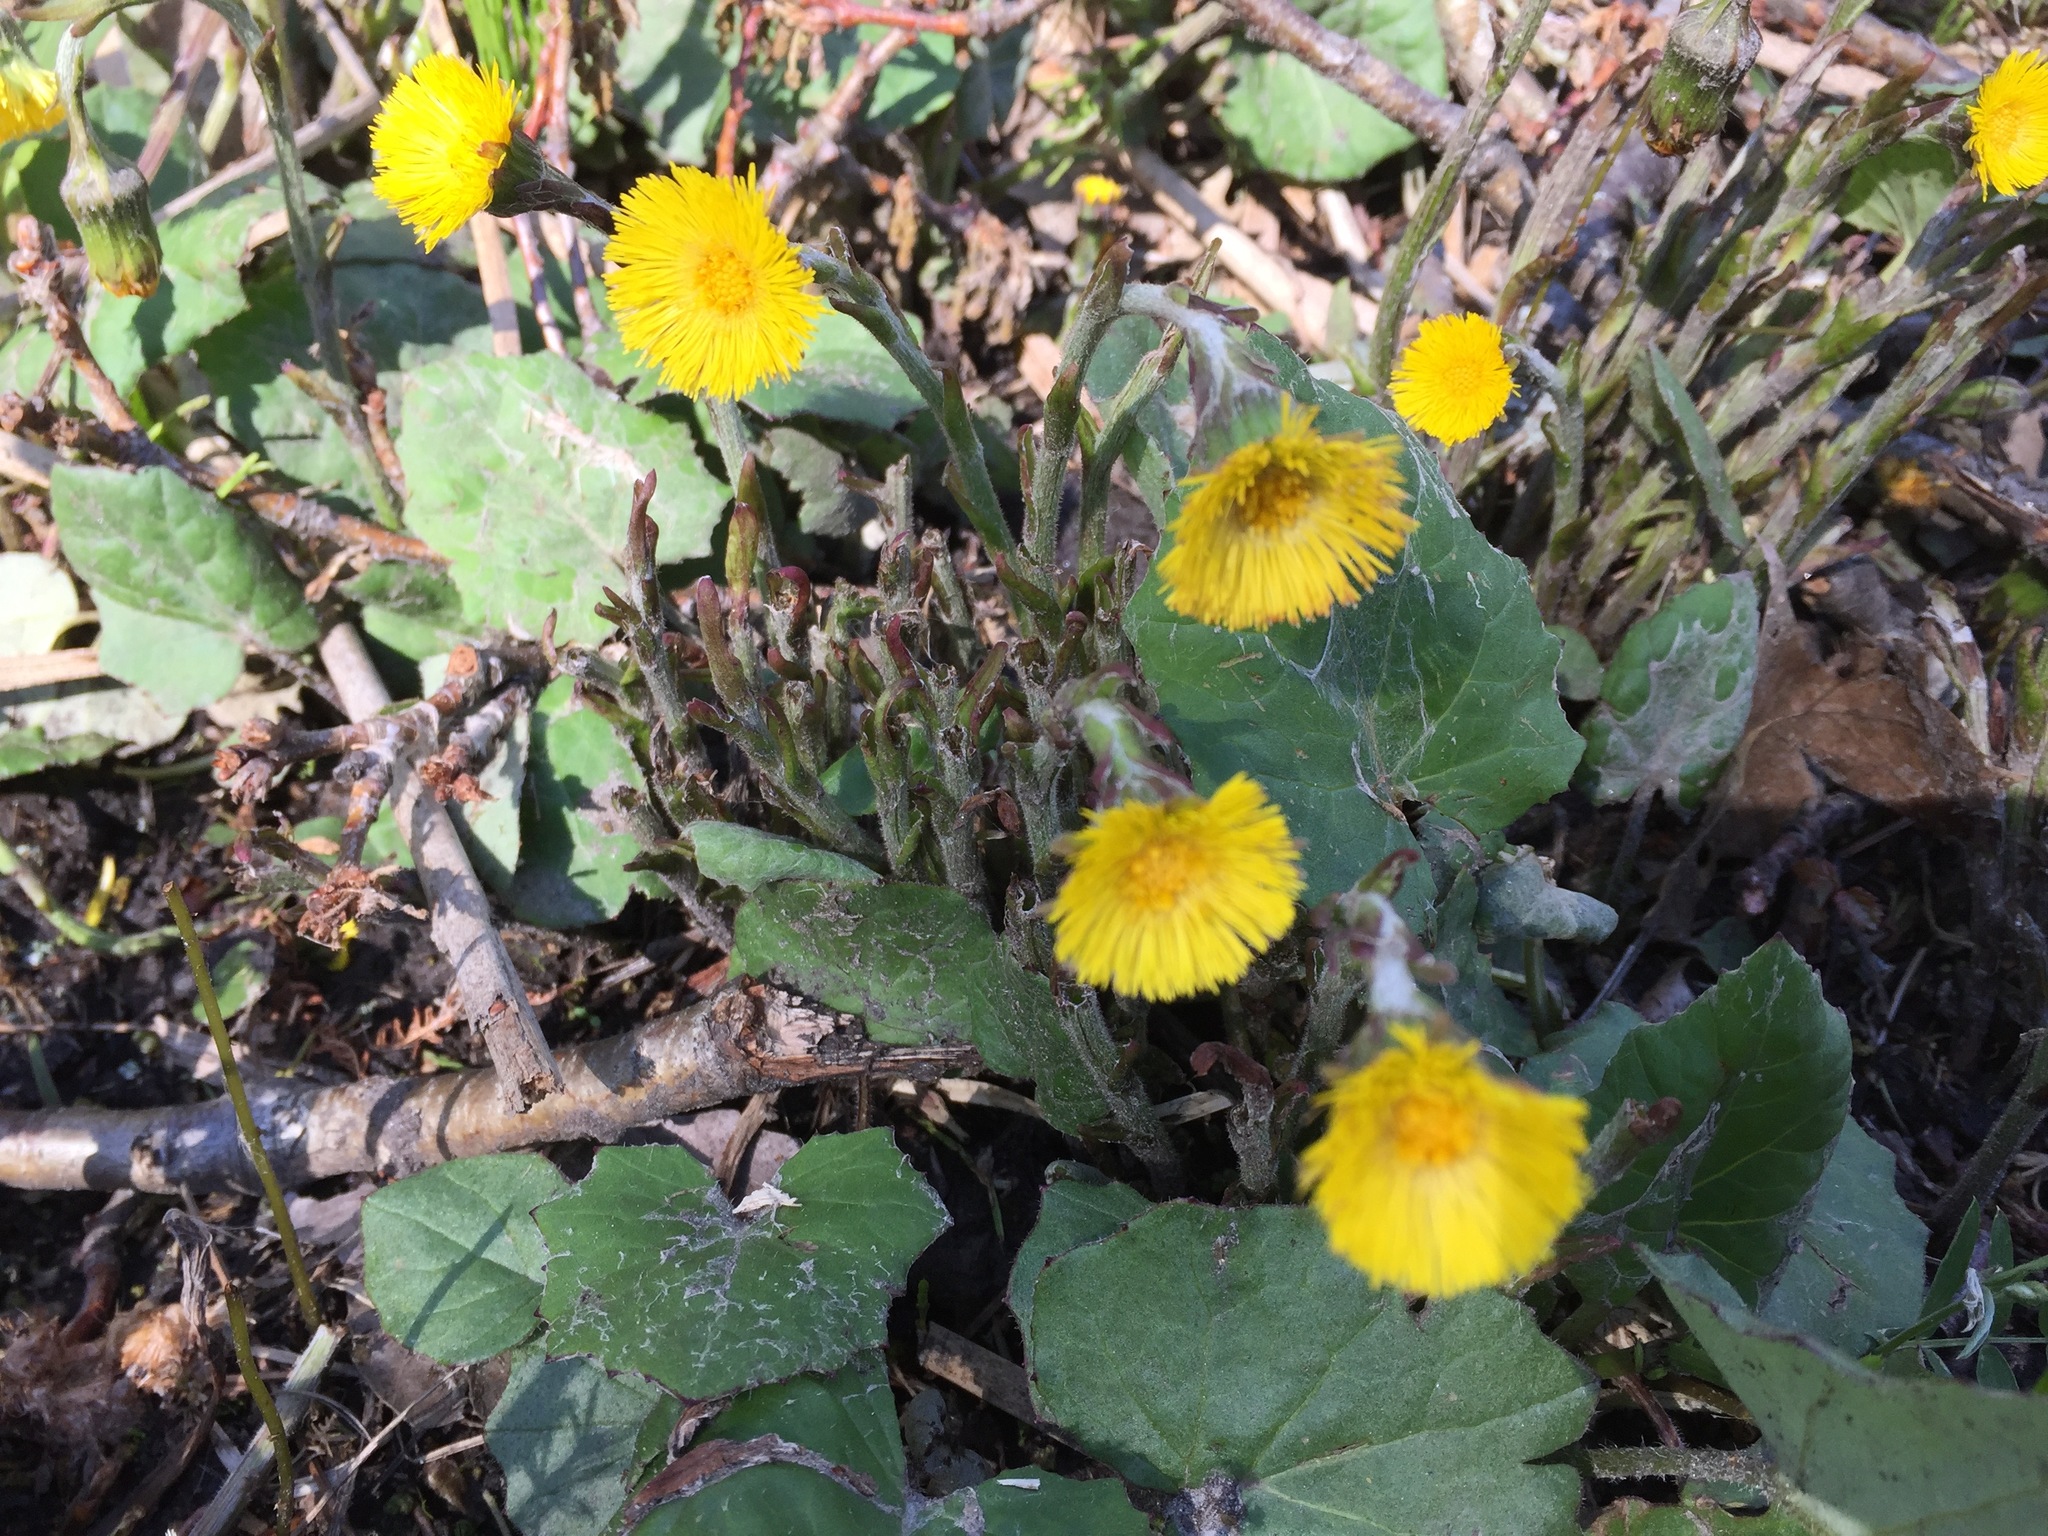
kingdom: Plantae
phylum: Tracheophyta
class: Magnoliopsida
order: Asterales
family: Asteraceae
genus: Tussilago
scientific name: Tussilago farfara
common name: Coltsfoot
